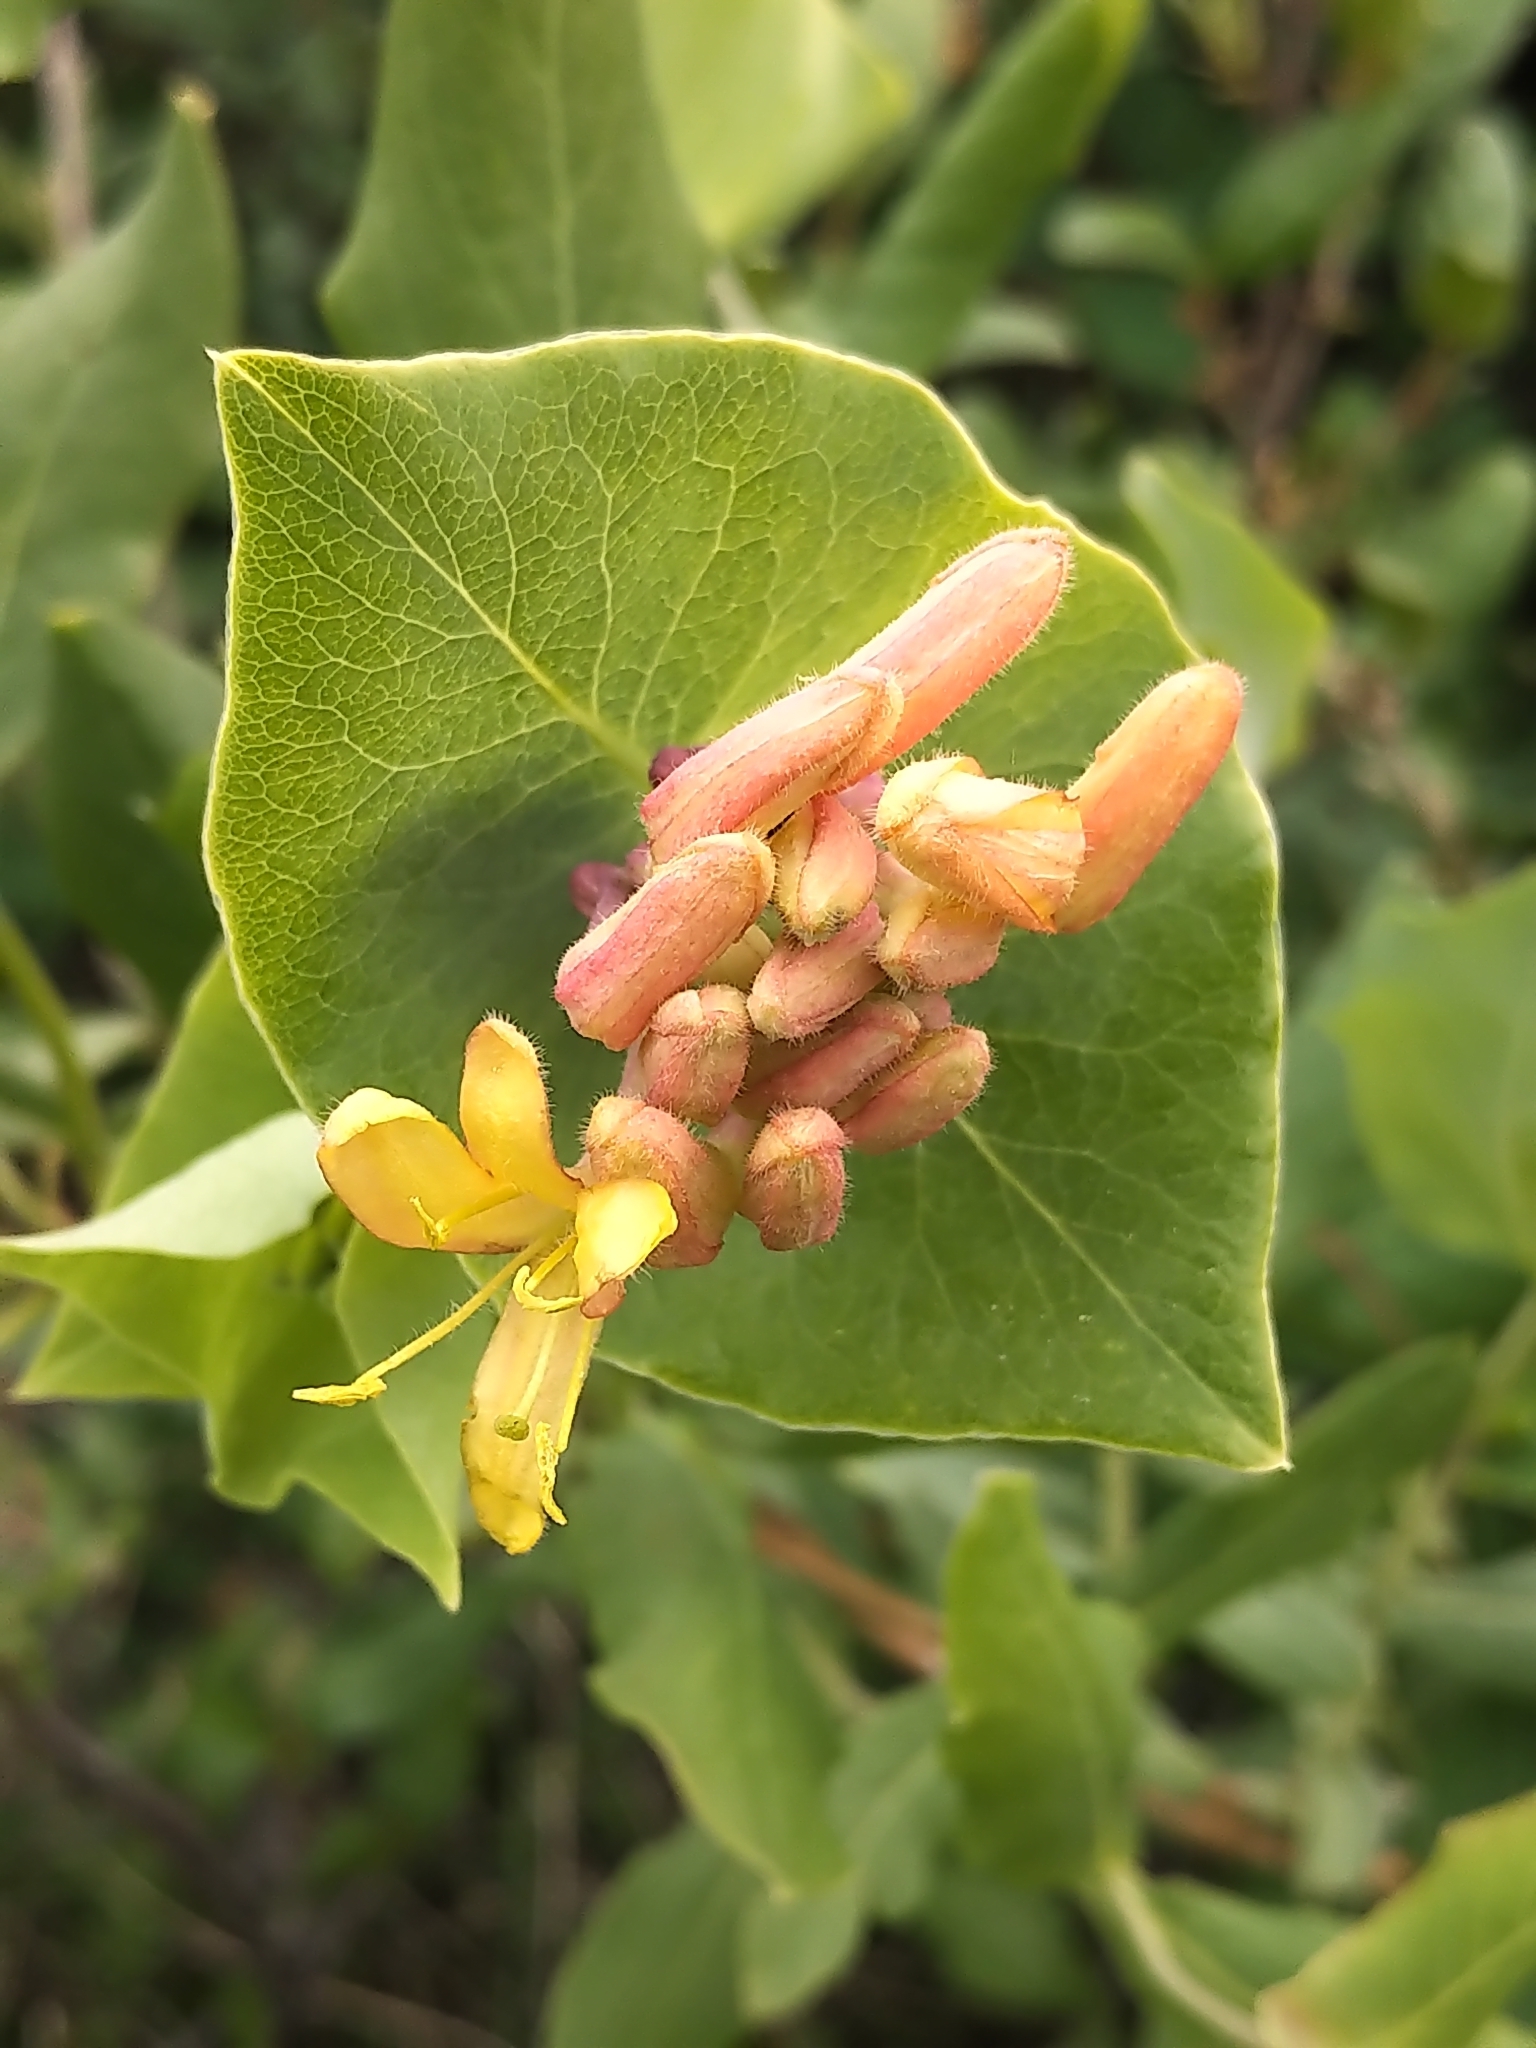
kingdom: Plantae
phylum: Tracheophyta
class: Magnoliopsida
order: Dipsacales
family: Caprifoliaceae
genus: Lonicera
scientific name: Lonicera dioica
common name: Limber honeysuckle
